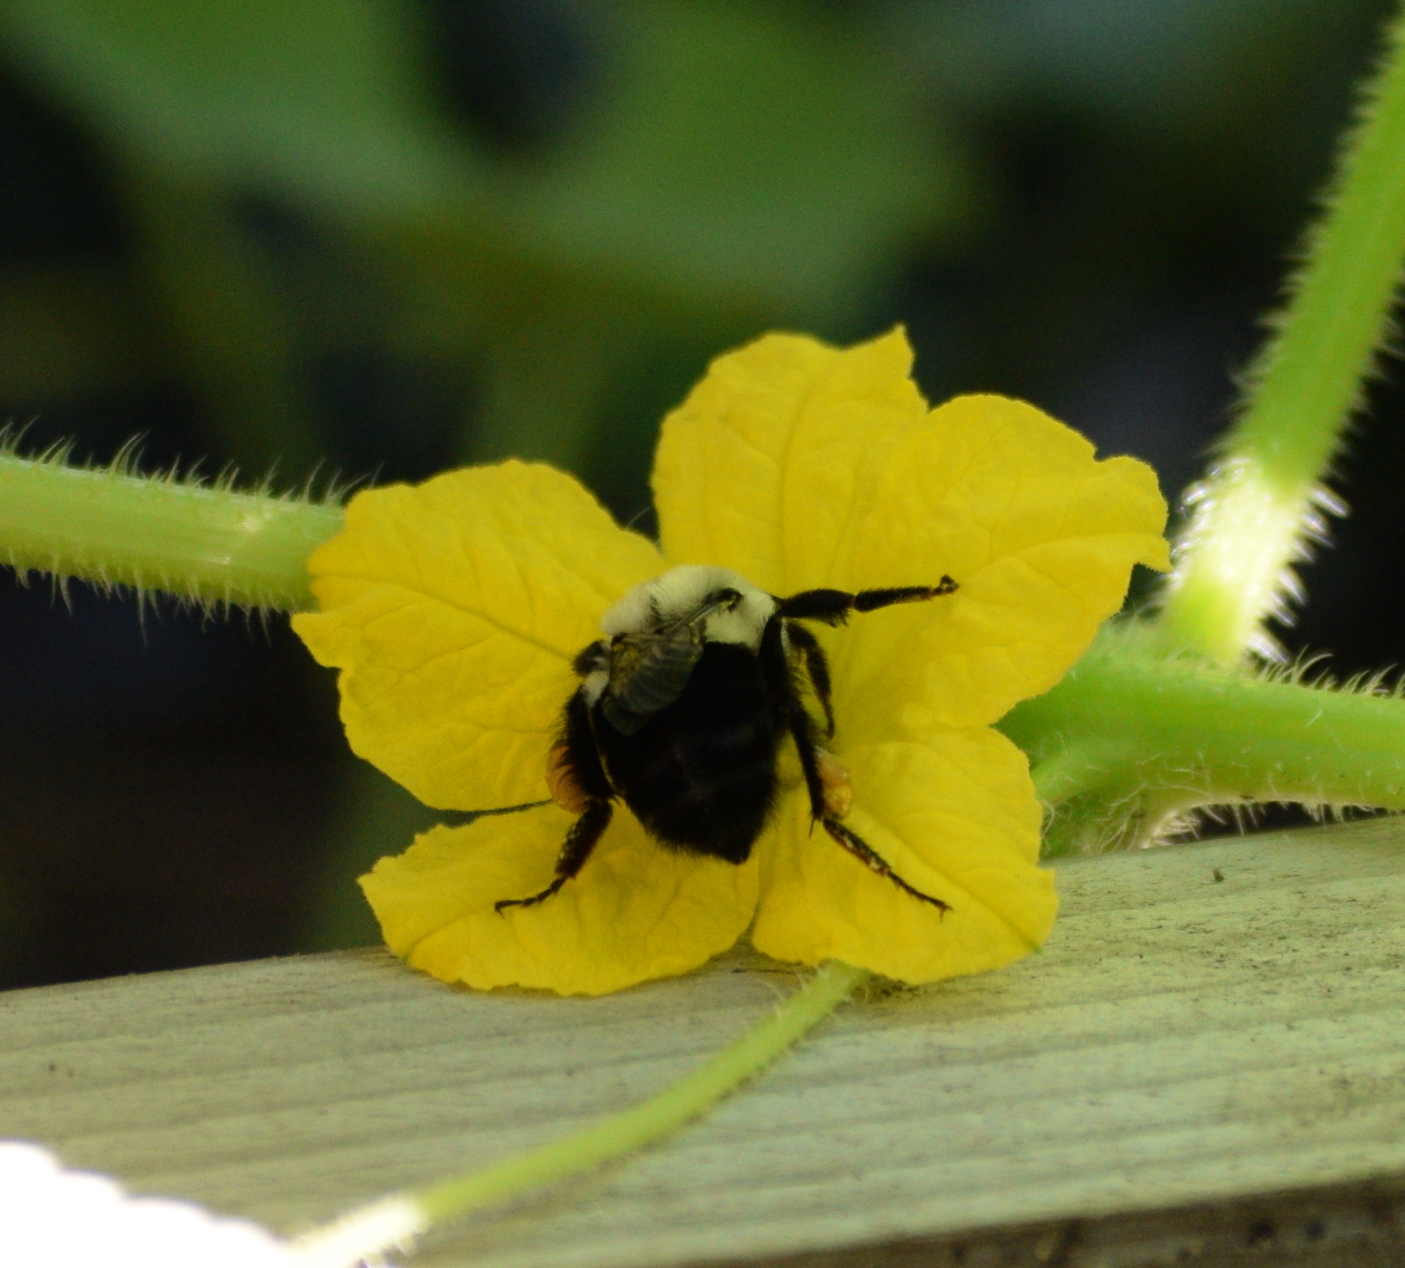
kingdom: Animalia
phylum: Arthropoda
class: Insecta
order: Hymenoptera
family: Apidae
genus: Bombus
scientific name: Bombus impatiens
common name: Common eastern bumble bee
